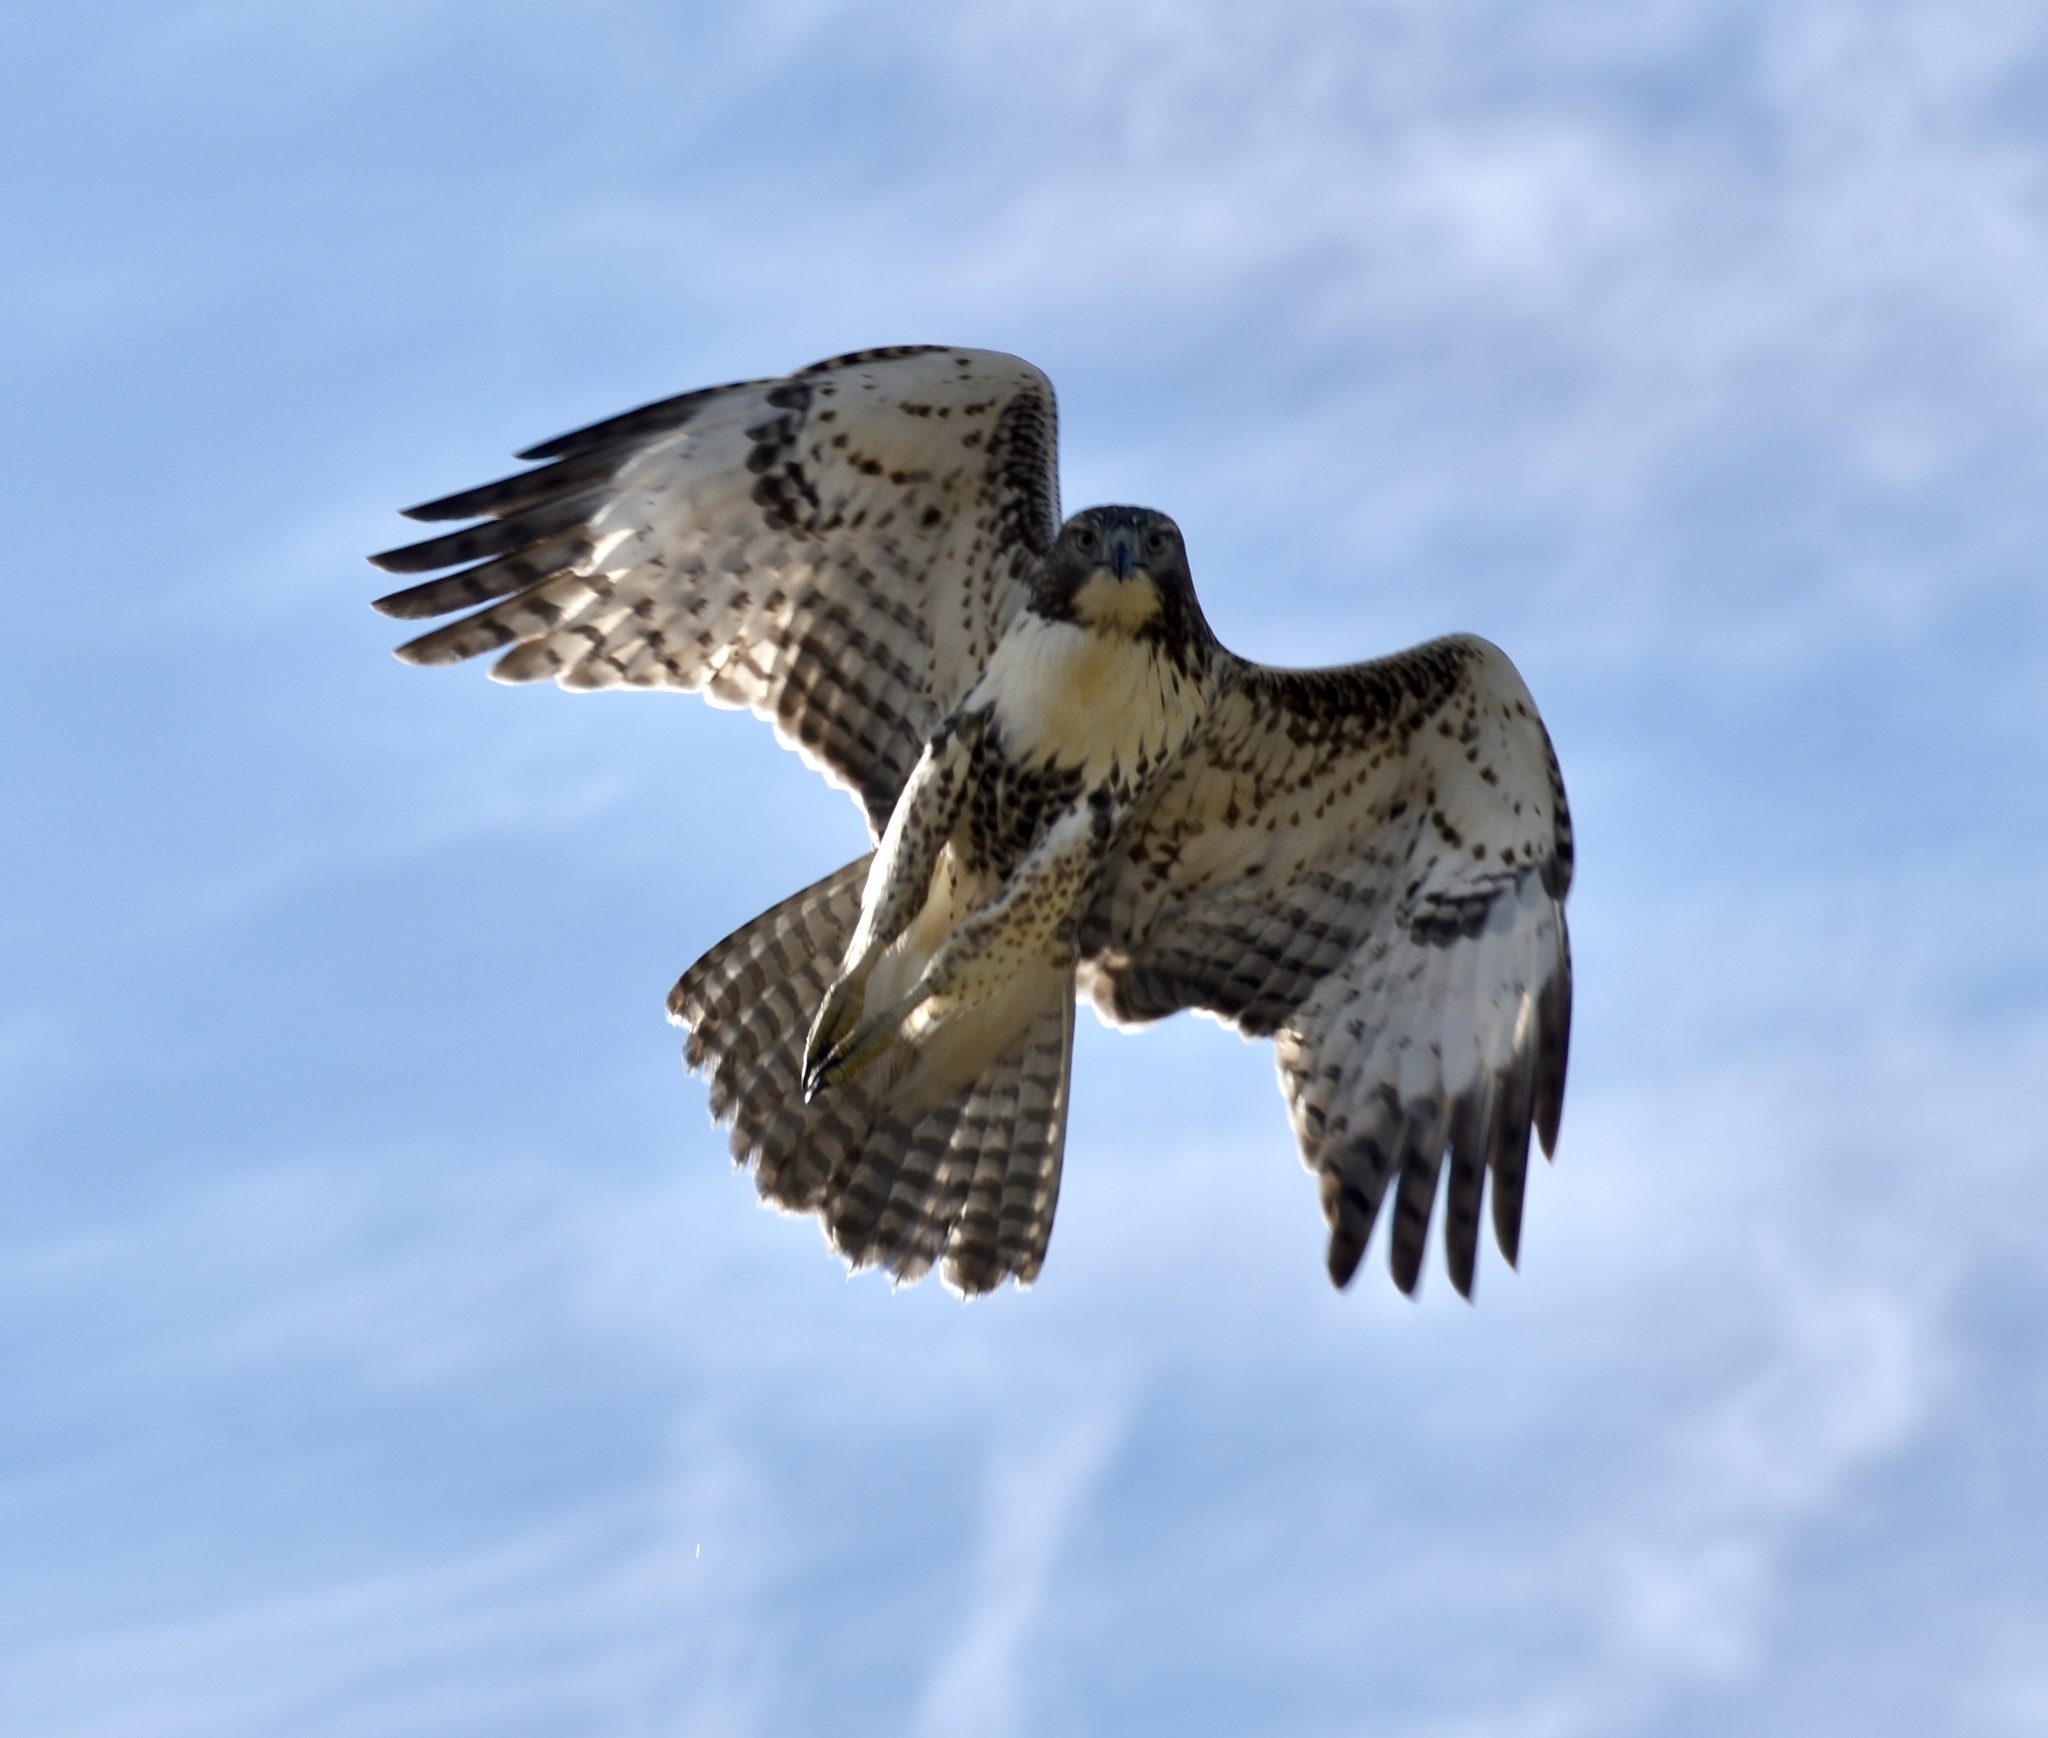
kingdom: Animalia
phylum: Chordata
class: Aves
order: Accipitriformes
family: Accipitridae
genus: Buteo
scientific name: Buteo jamaicensis
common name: Red-tailed hawk
